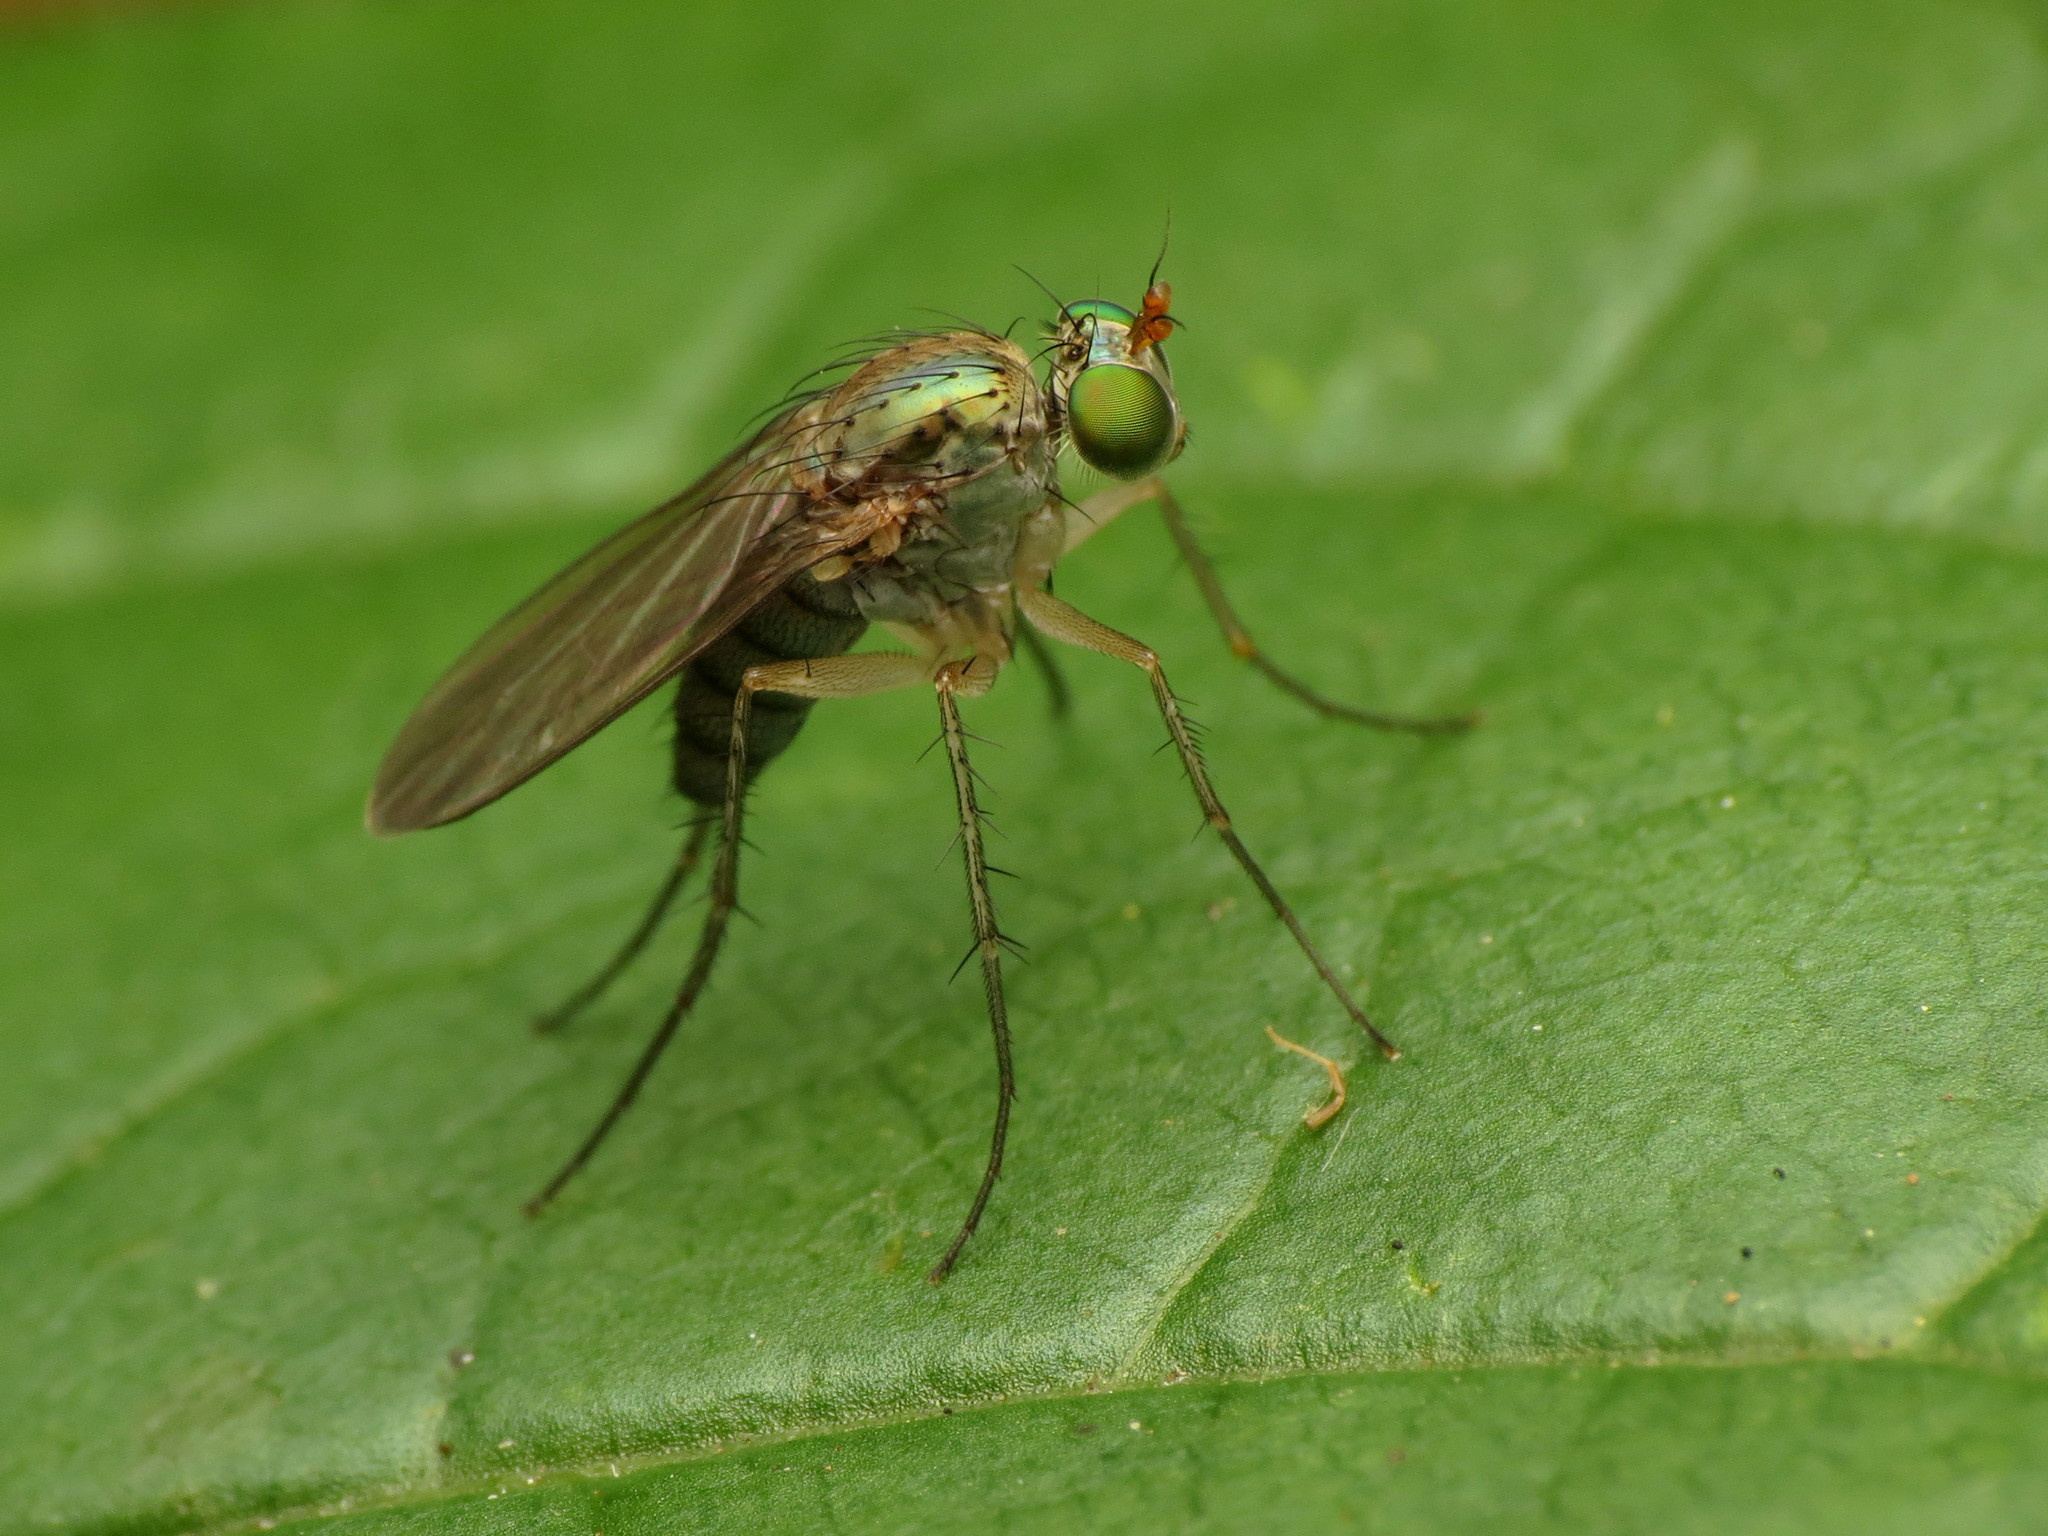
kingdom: Animalia
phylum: Arthropoda
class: Insecta
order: Diptera
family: Dolichopodidae
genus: Dolichopus
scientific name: Dolichopus scapularis
